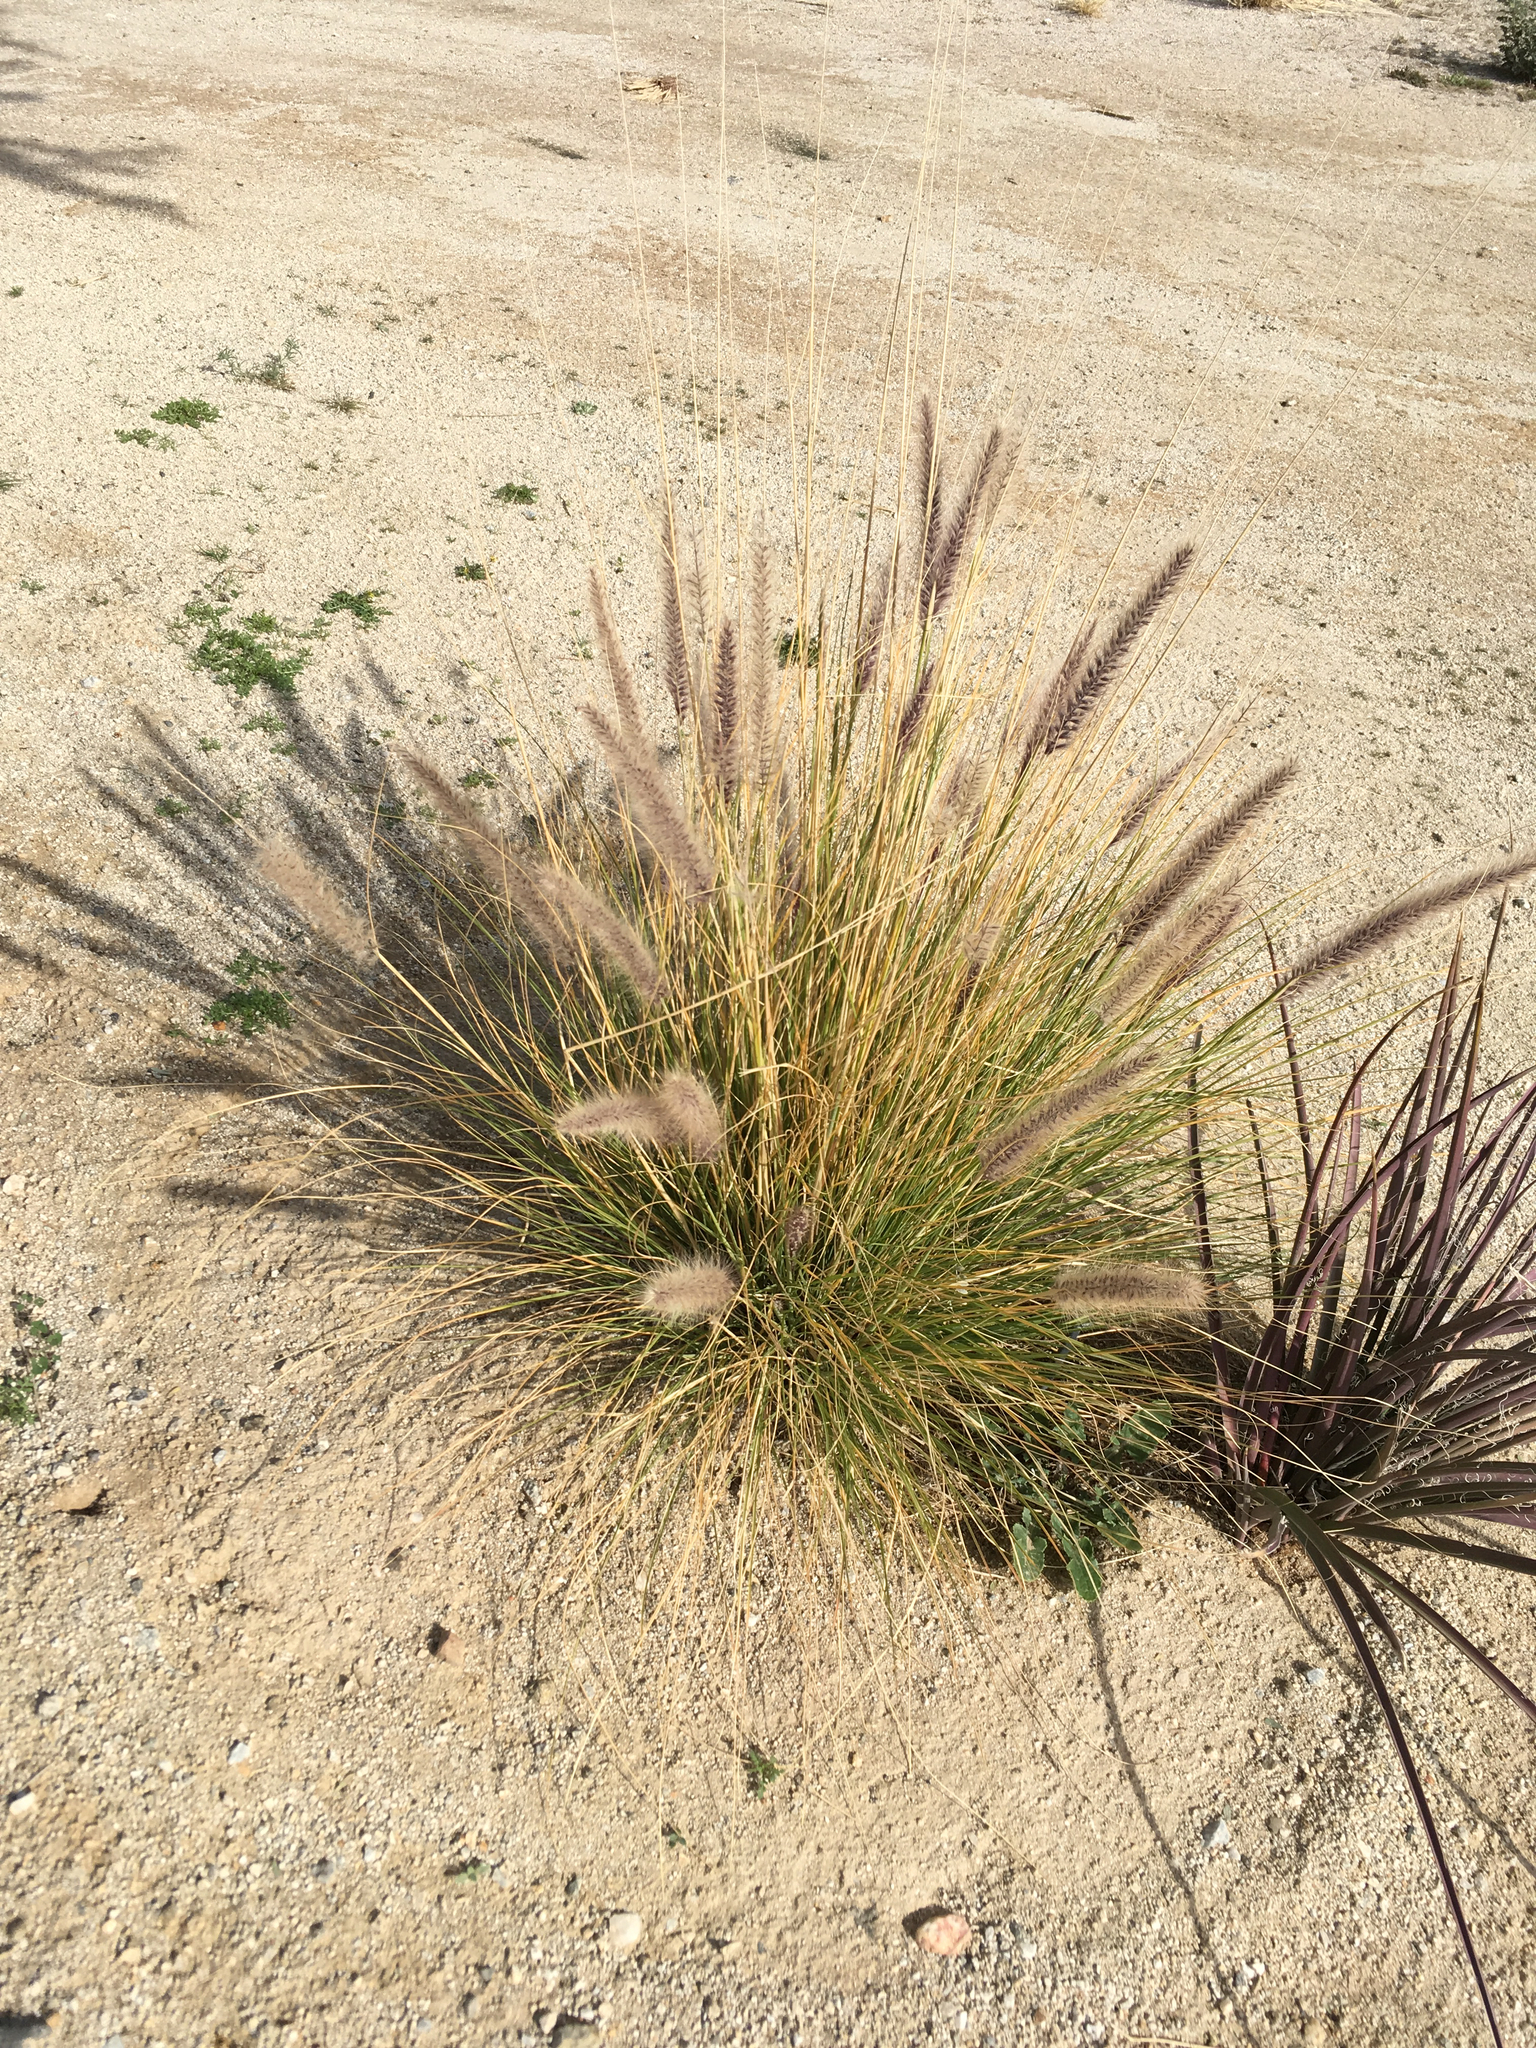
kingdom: Plantae
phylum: Tracheophyta
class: Liliopsida
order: Poales
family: Poaceae
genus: Cenchrus
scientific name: Cenchrus setaceus
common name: Crimson fountaingrass
